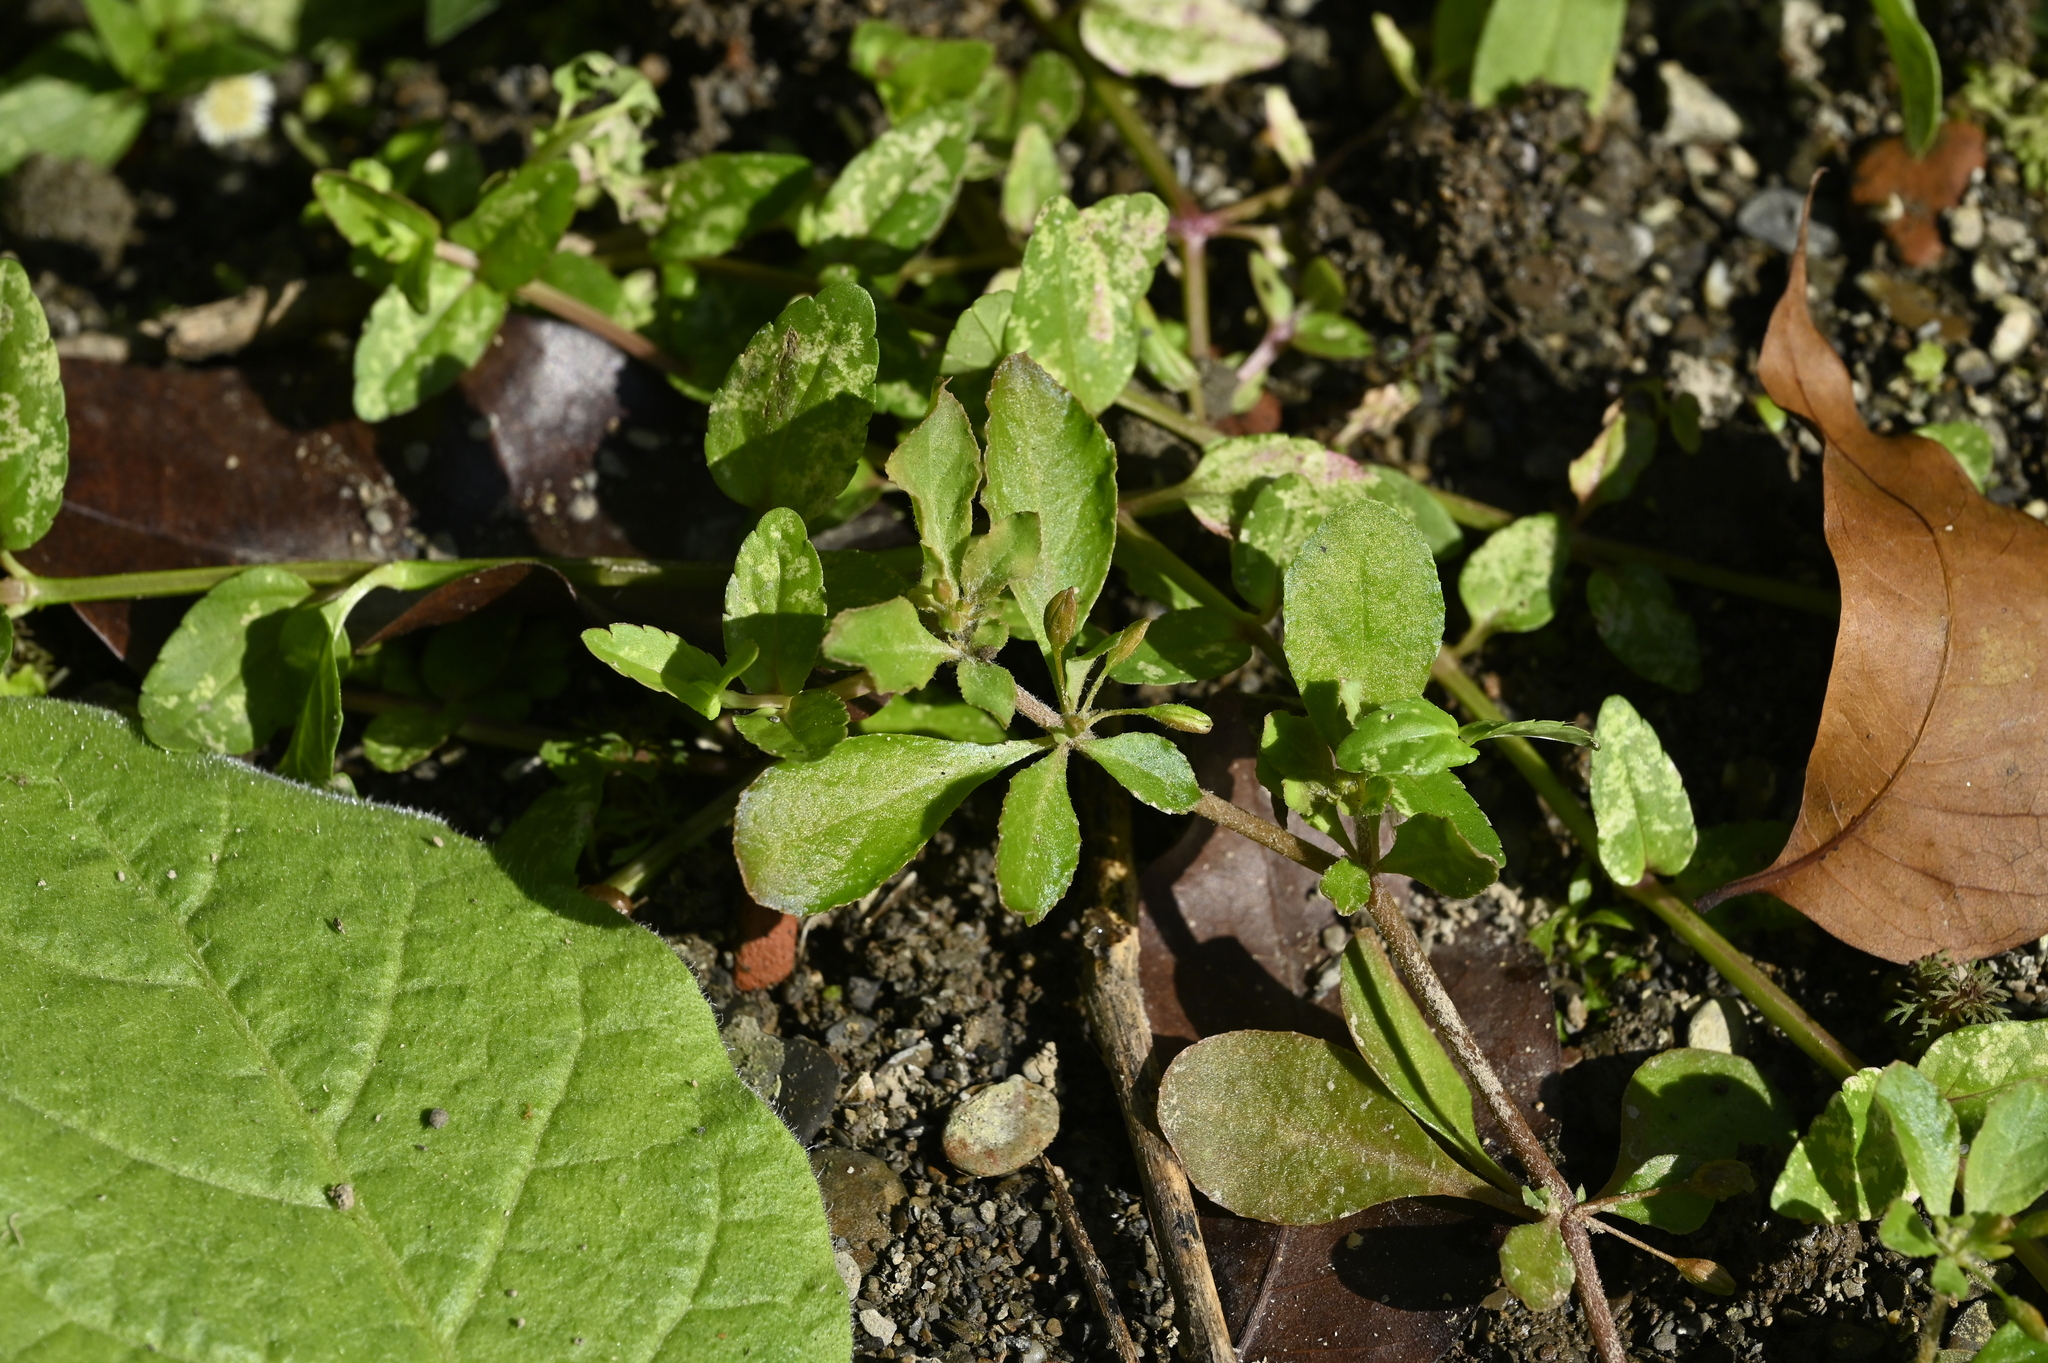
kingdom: Plantae
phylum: Tracheophyta
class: Magnoliopsida
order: Caryophyllales
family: Molluginaceae
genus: Glinus
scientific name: Glinus oppositifolius
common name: Slender carpetweed
